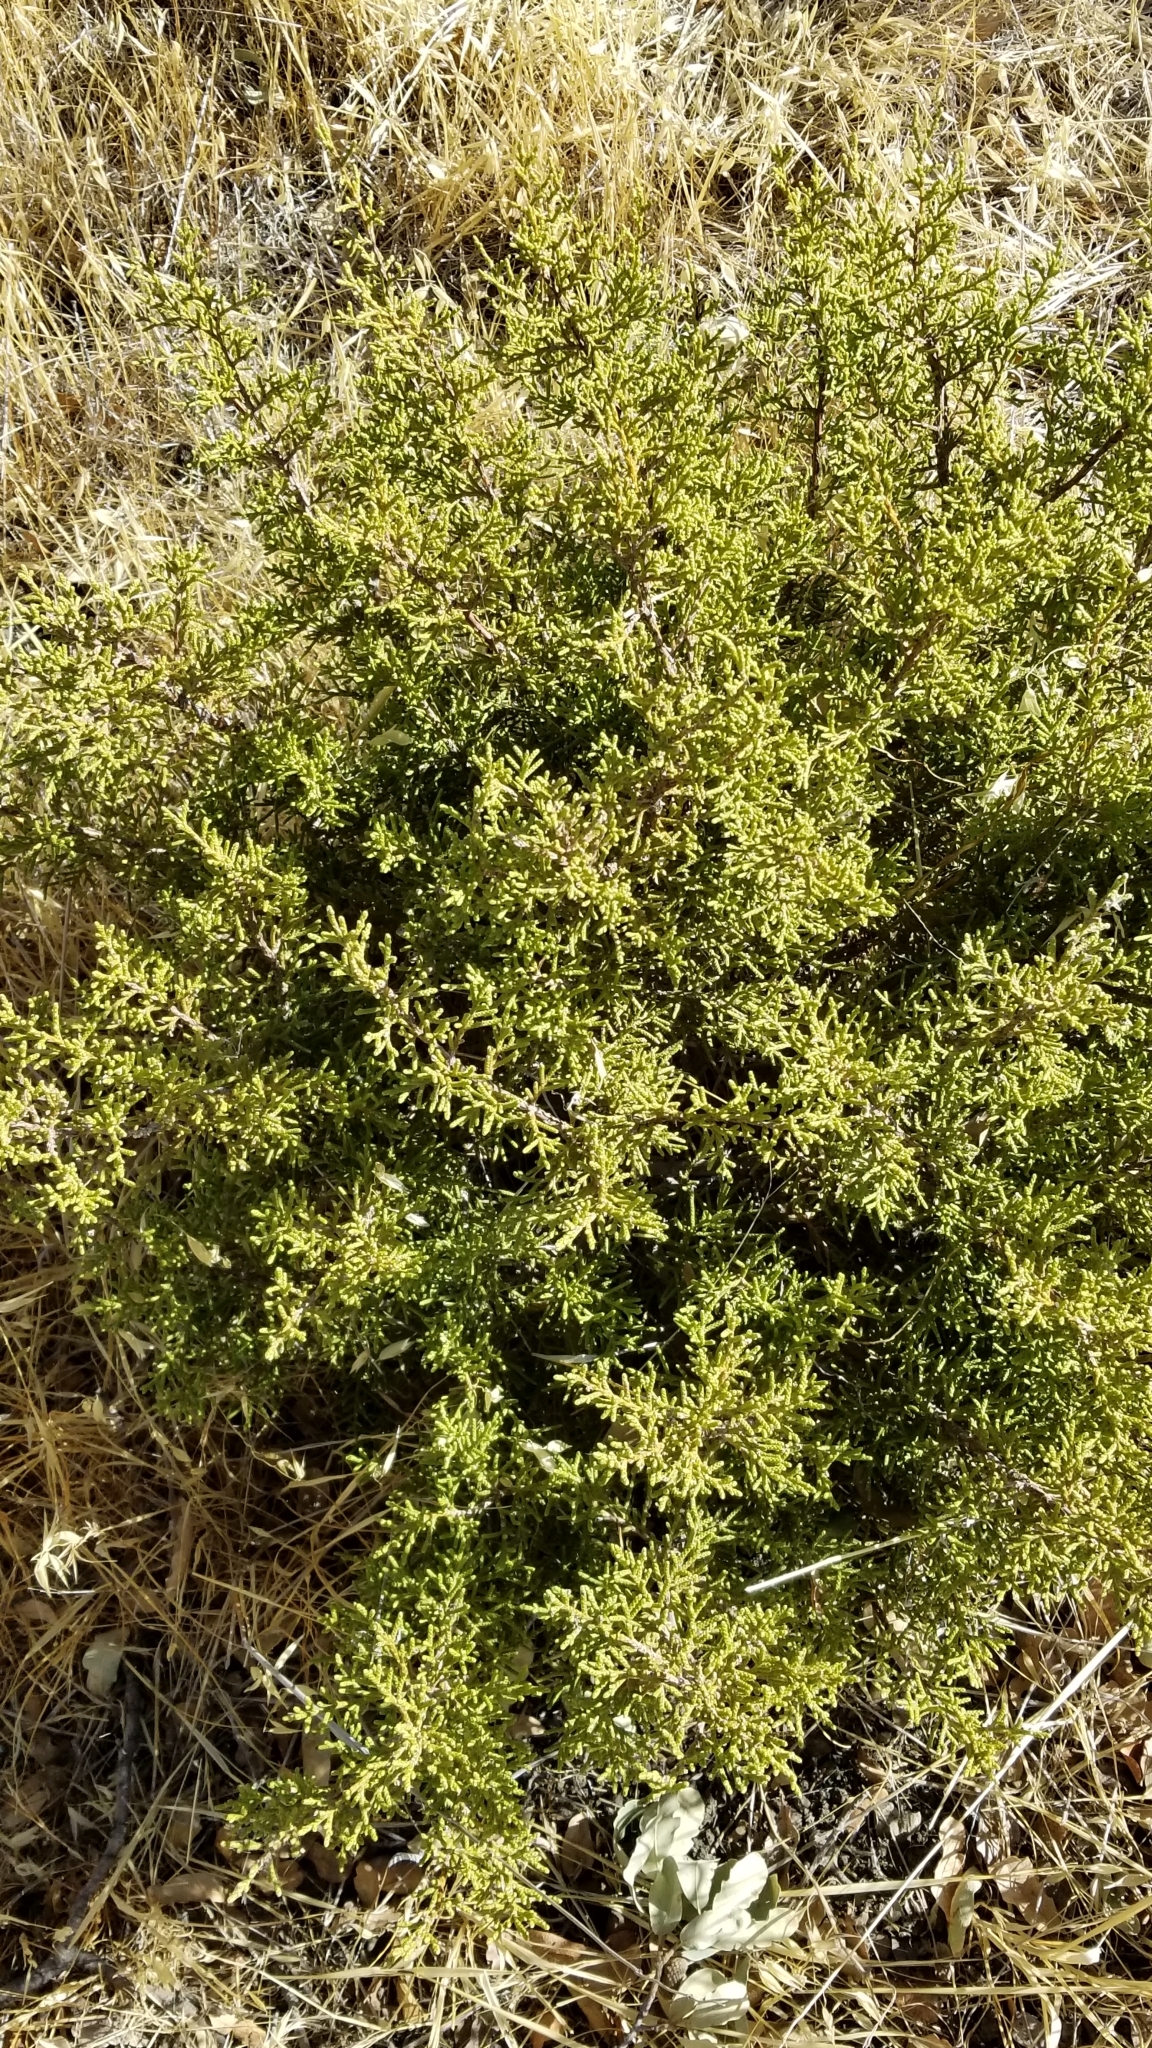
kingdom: Plantae
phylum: Tracheophyta
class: Pinopsida
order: Pinales
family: Cupressaceae
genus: Juniperus
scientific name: Juniperus californica
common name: California juniper
